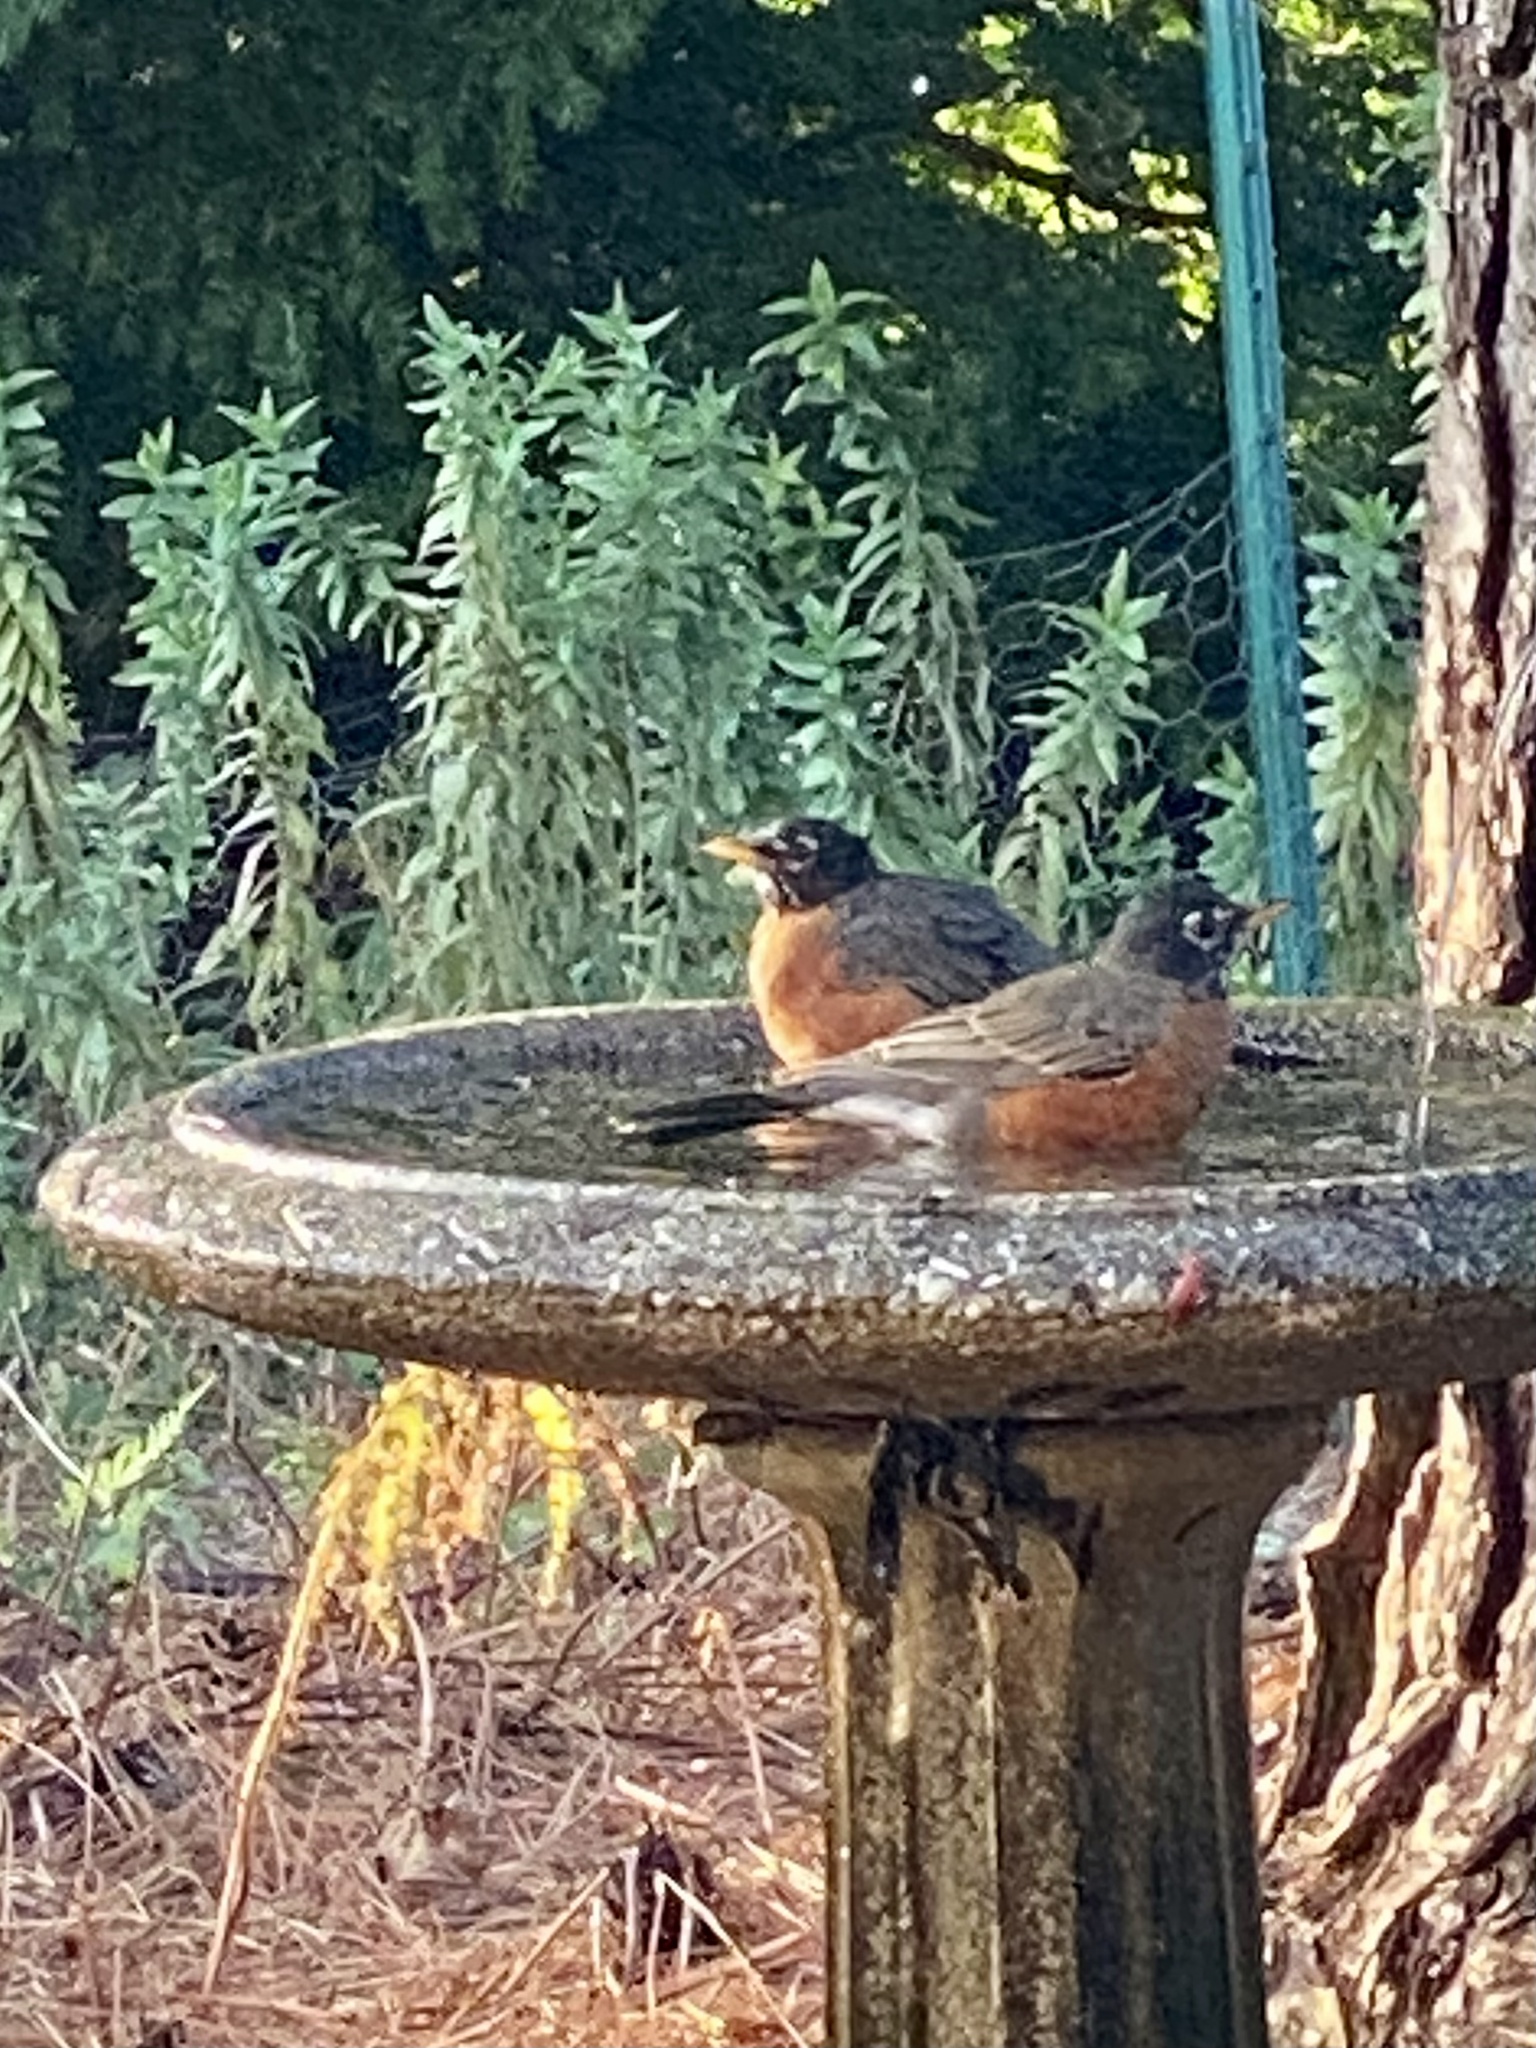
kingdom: Animalia
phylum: Chordata
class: Aves
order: Passeriformes
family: Turdidae
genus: Turdus
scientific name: Turdus migratorius
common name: American robin
